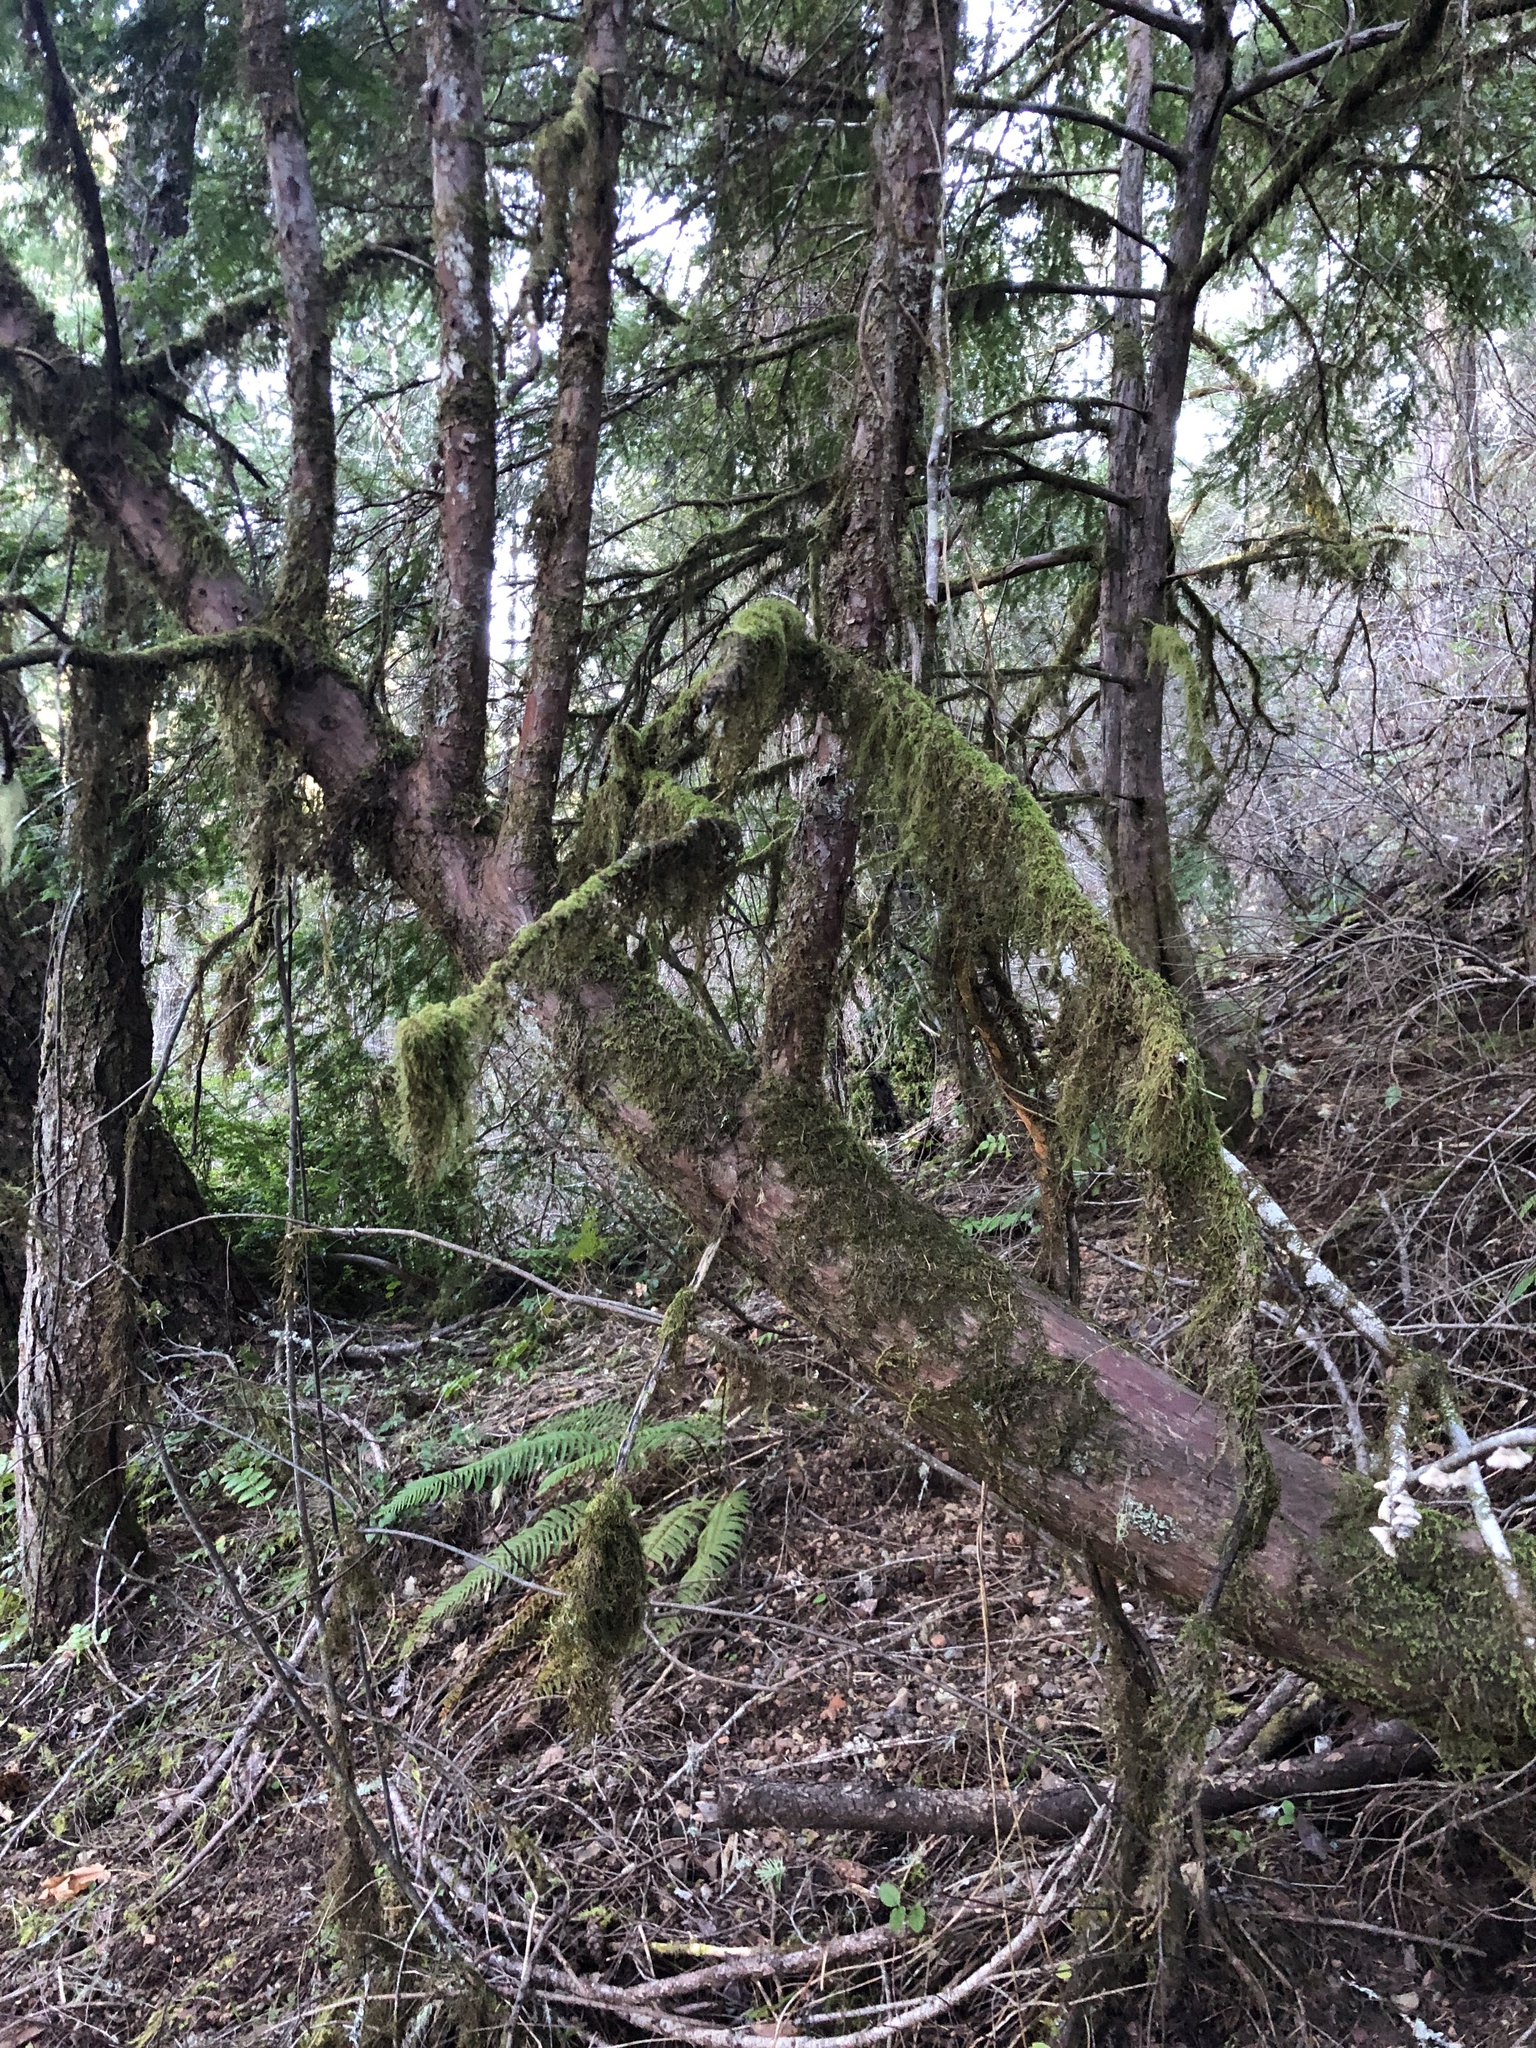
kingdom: Plantae
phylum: Tracheophyta
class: Pinopsida
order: Pinales
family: Taxaceae
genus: Taxus
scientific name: Taxus brevifolia
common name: Pacific yew
